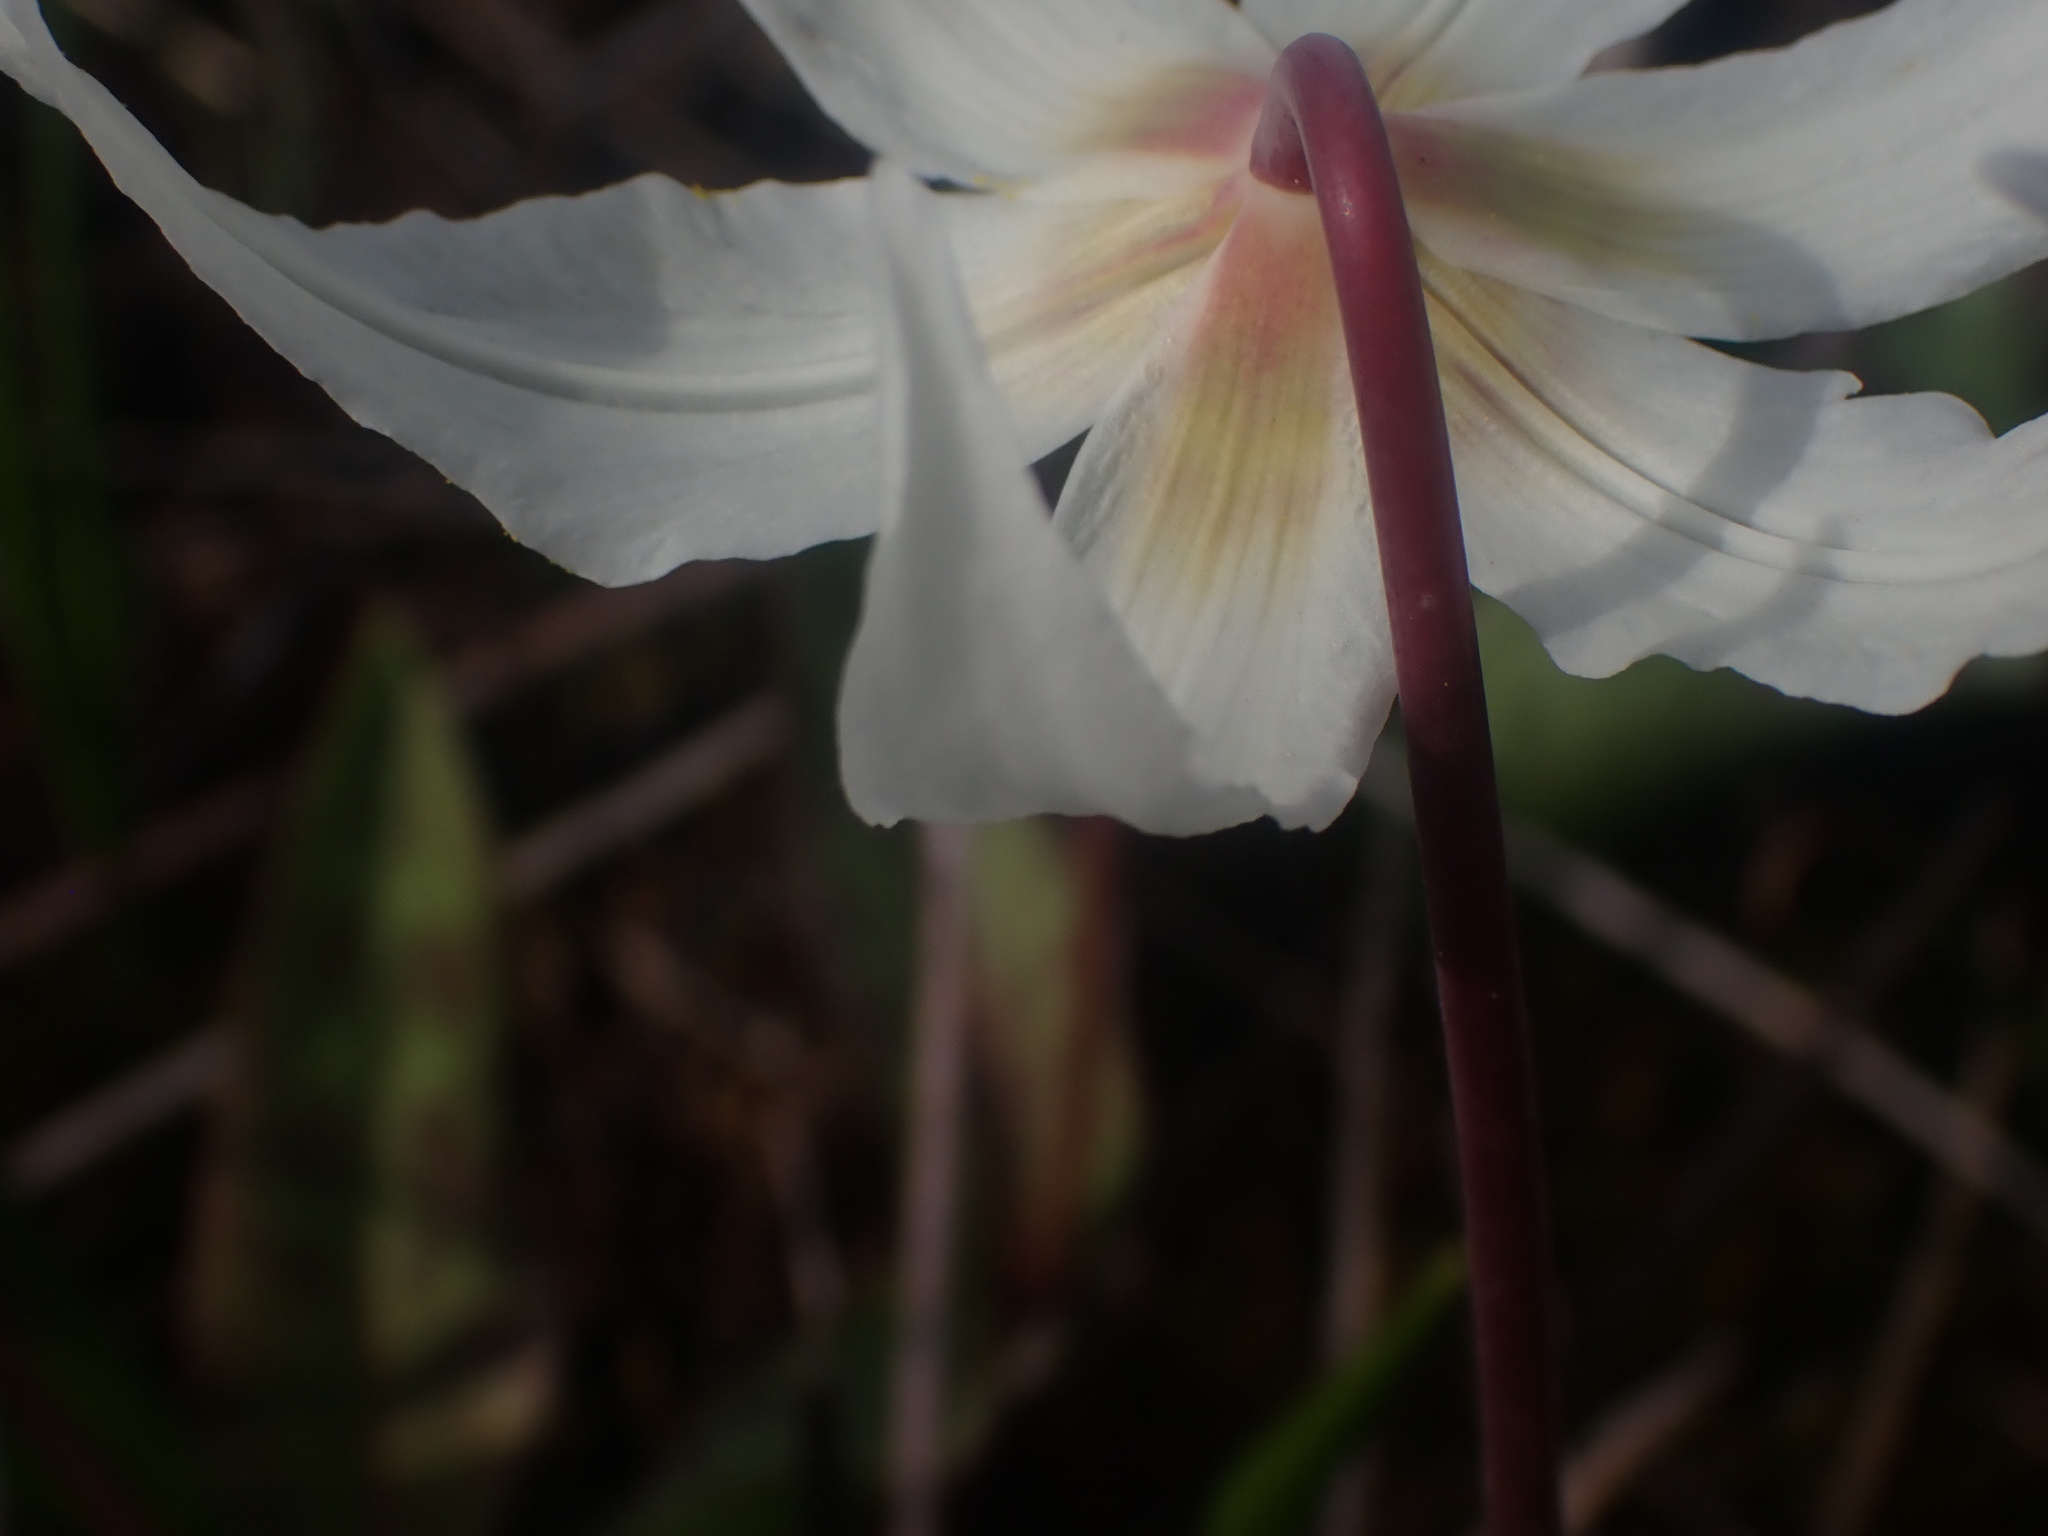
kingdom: Plantae
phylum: Tracheophyta
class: Liliopsida
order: Liliales
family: Liliaceae
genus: Erythronium
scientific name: Erythronium oregonum
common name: Giant adder's-tongue
